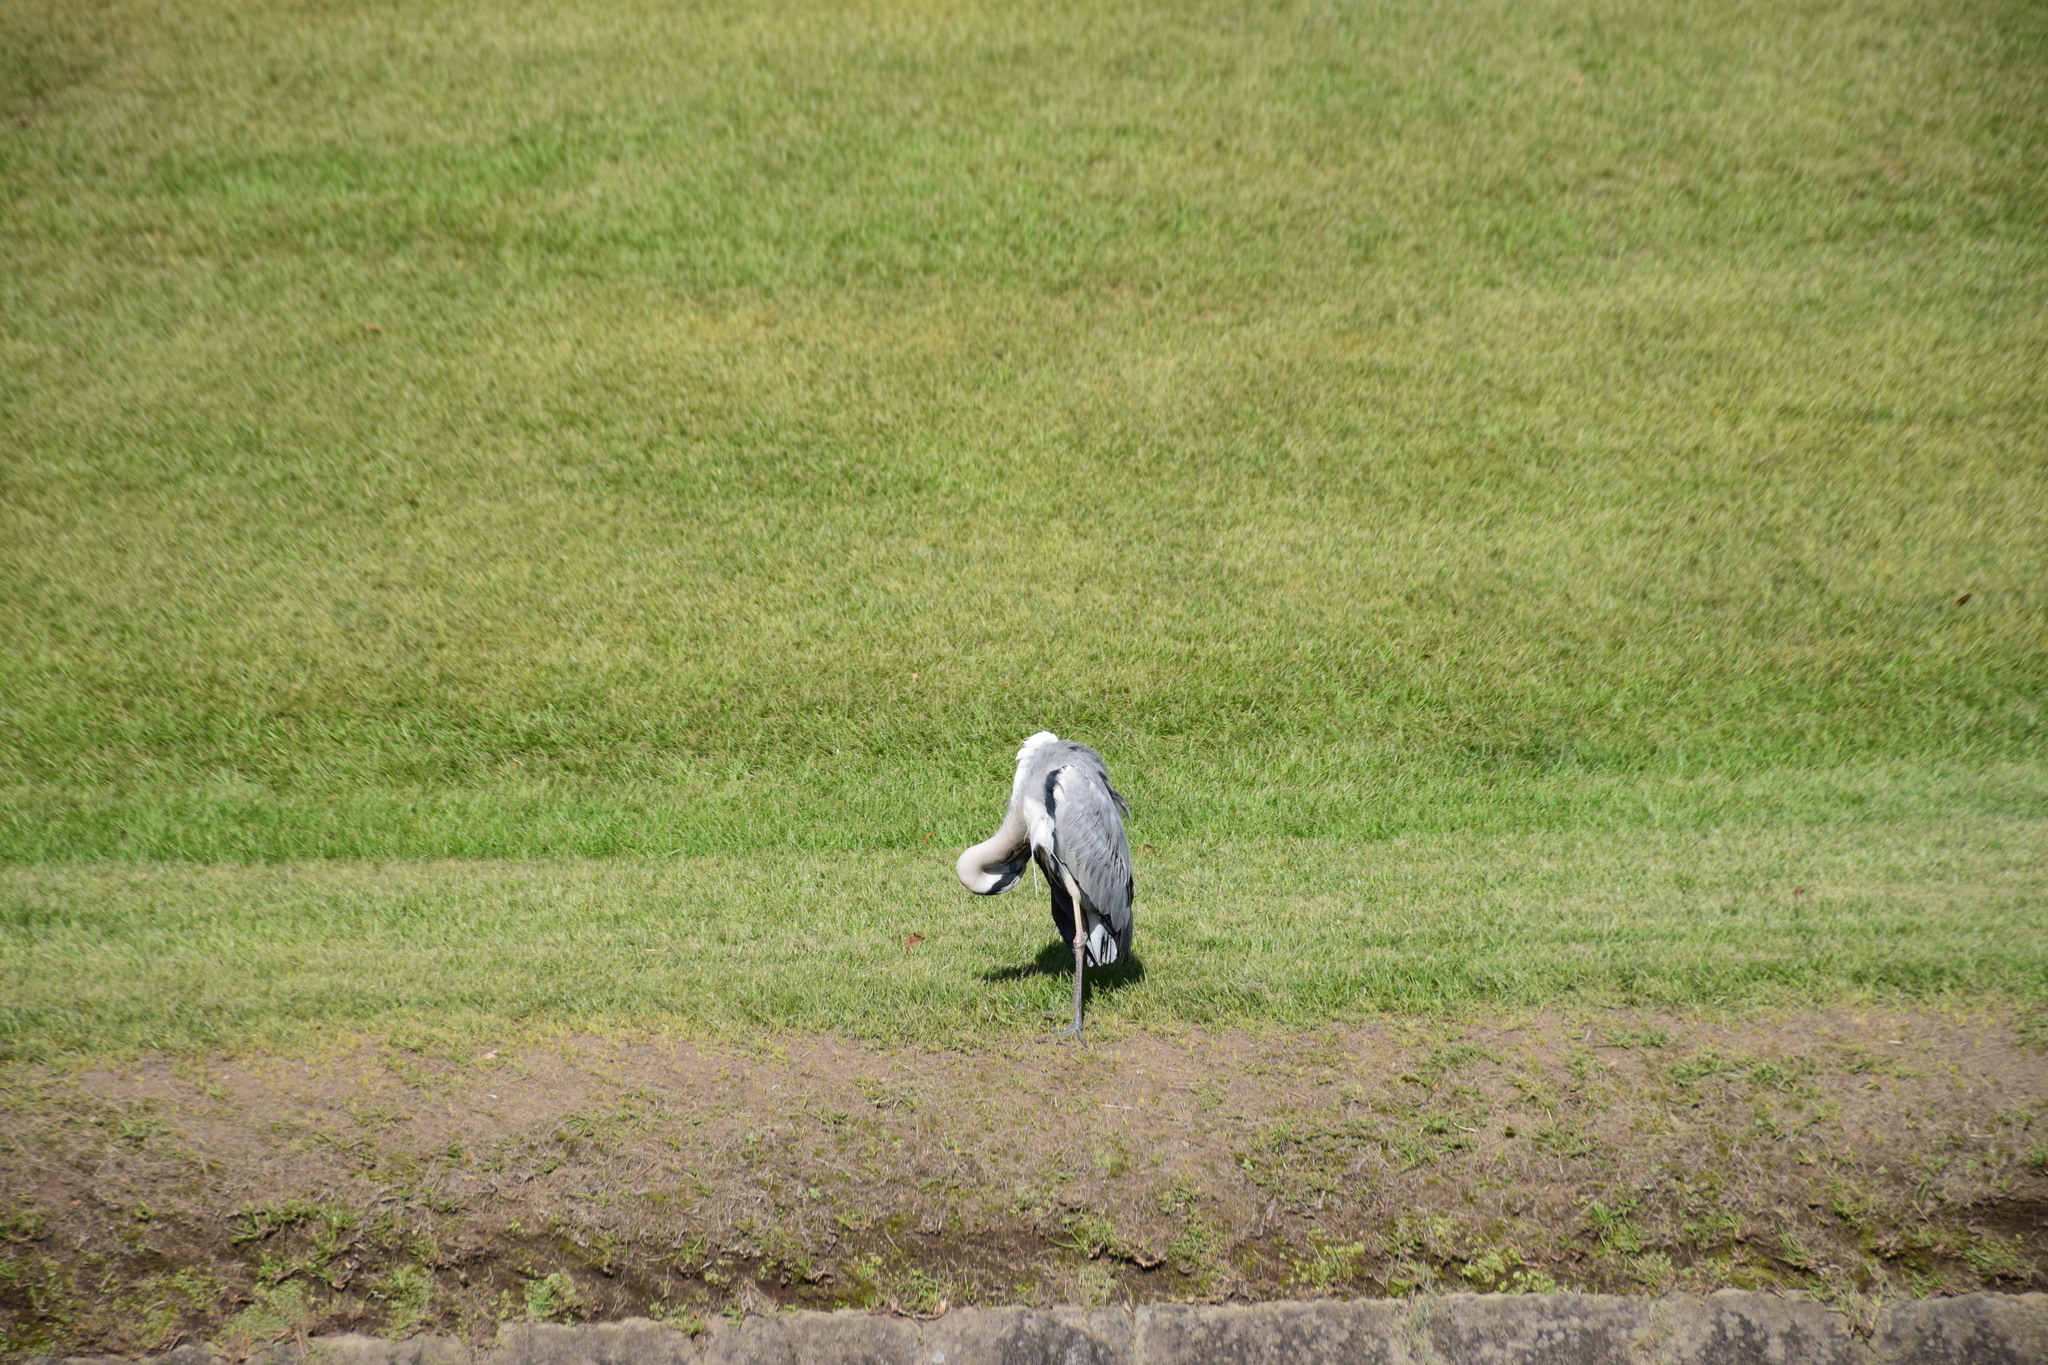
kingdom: Animalia
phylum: Chordata
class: Aves
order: Pelecaniformes
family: Ardeidae
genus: Ardea
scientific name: Ardea cinerea
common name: Grey heron
